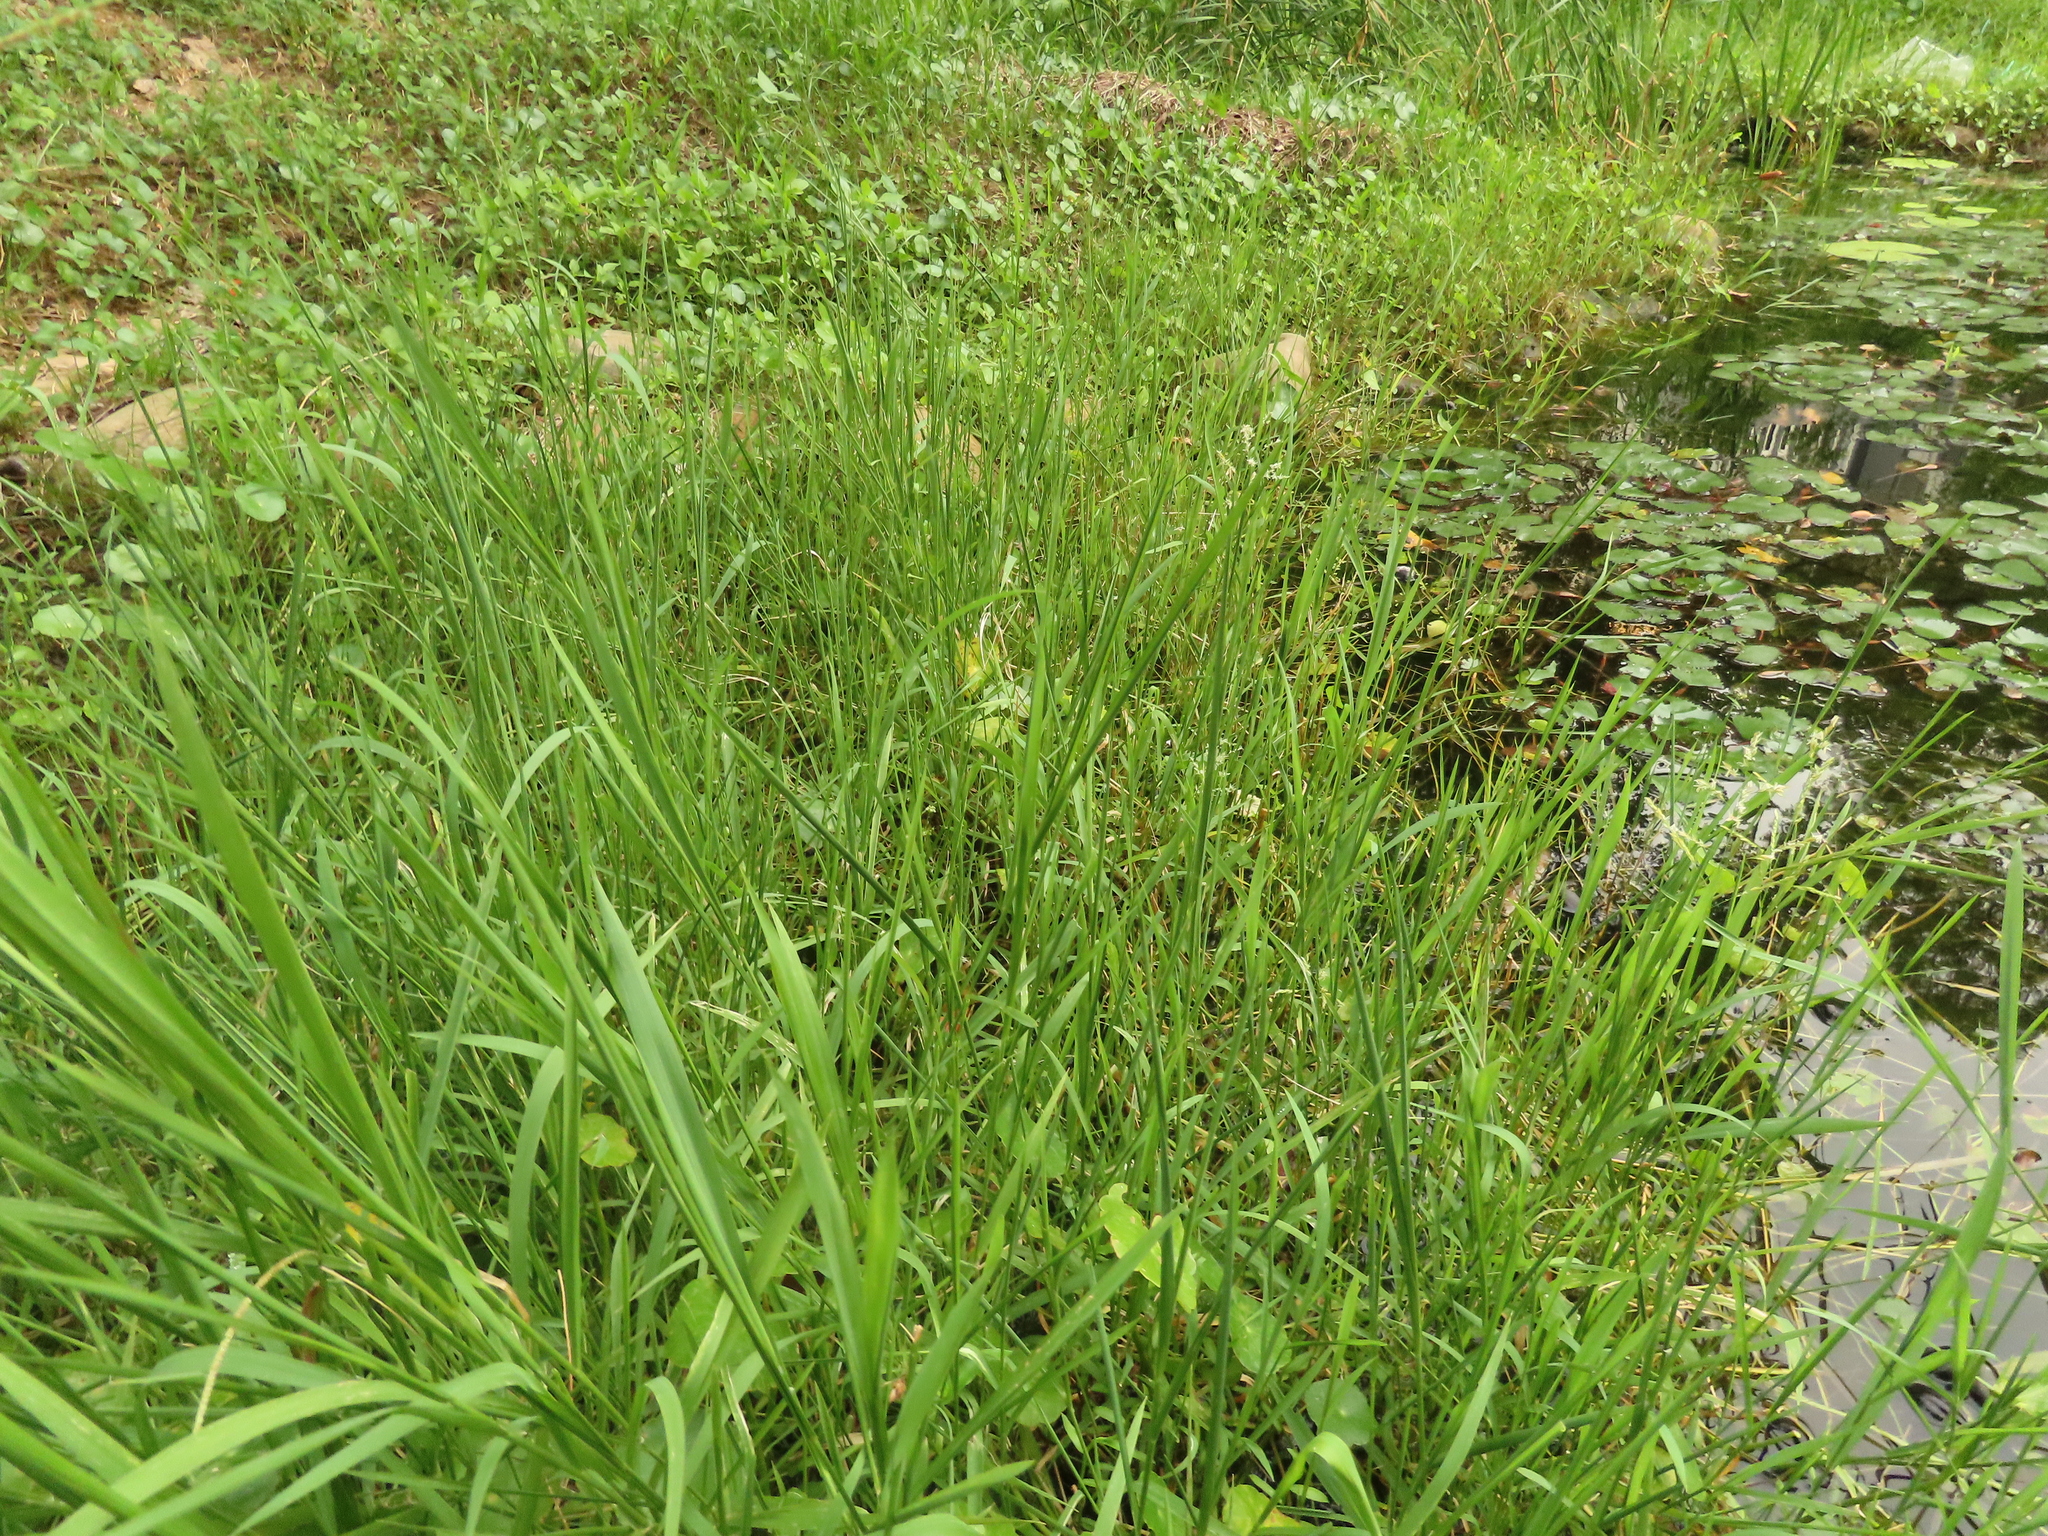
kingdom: Plantae
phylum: Tracheophyta
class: Liliopsida
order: Poales
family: Poaceae
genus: Leersia
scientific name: Leersia hexandra
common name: Southern cut grass
